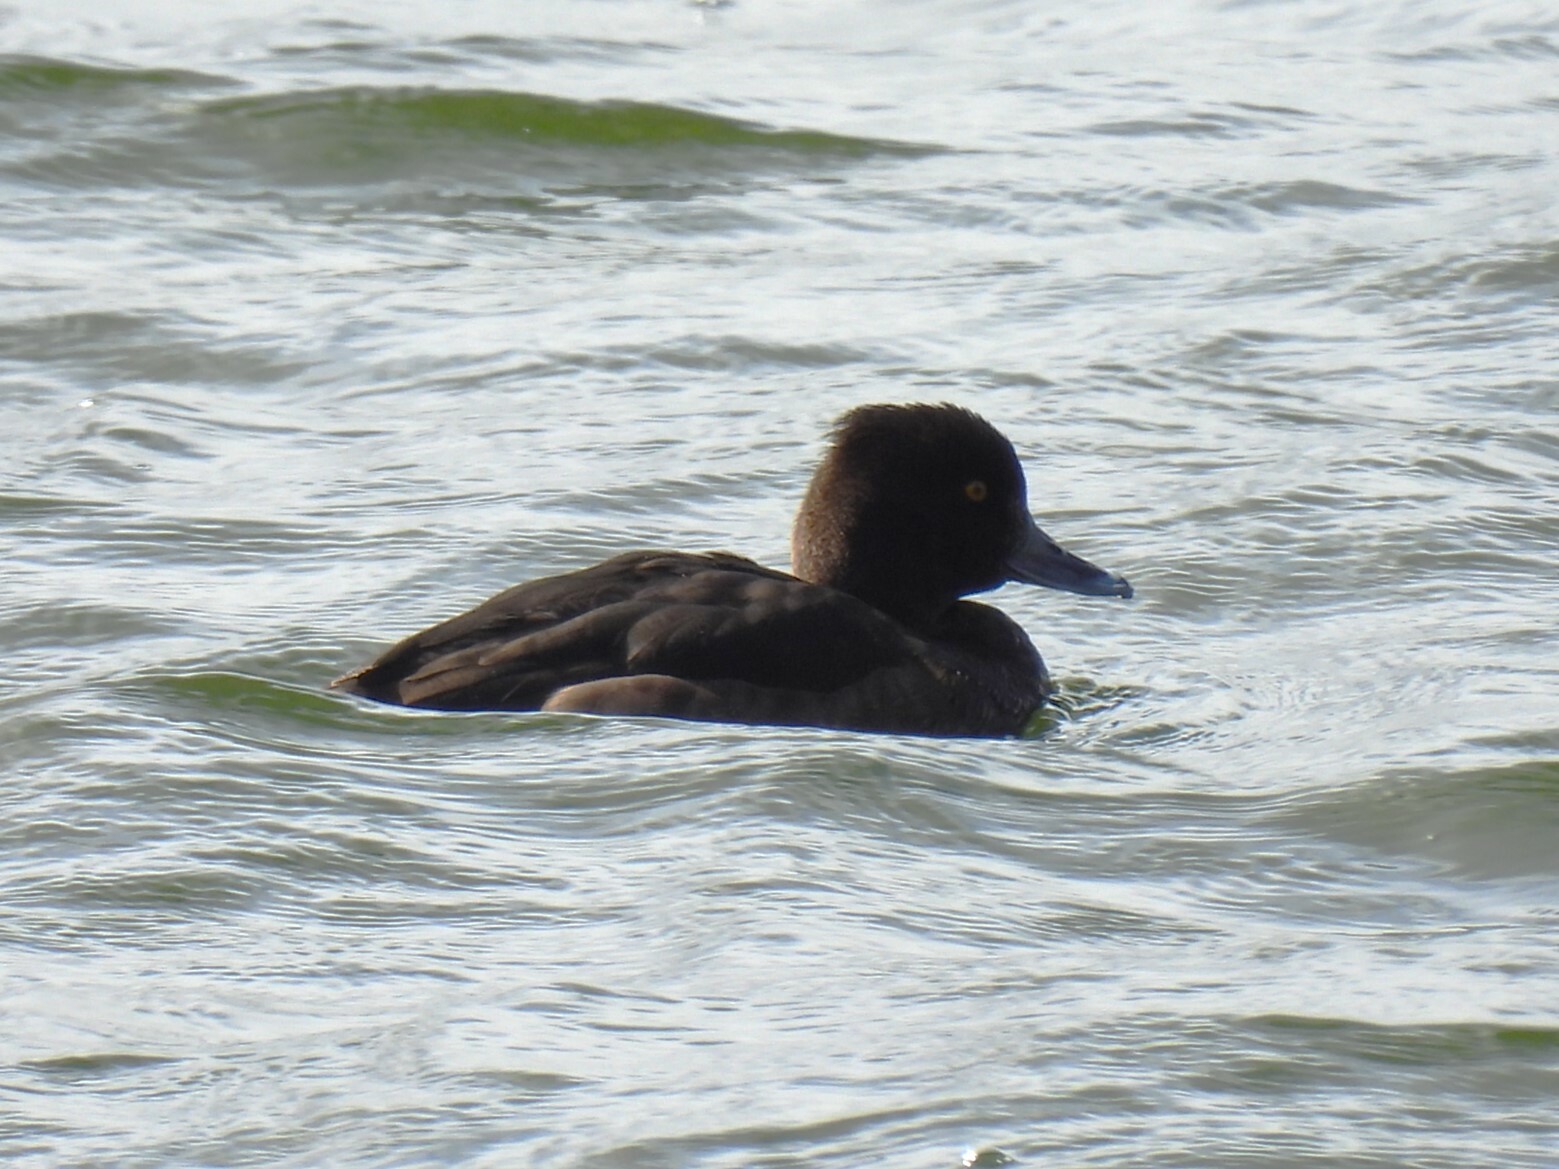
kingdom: Animalia
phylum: Chordata
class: Aves
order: Anseriformes
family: Anatidae
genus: Aythya
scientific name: Aythya fuligula
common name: Tufted duck
